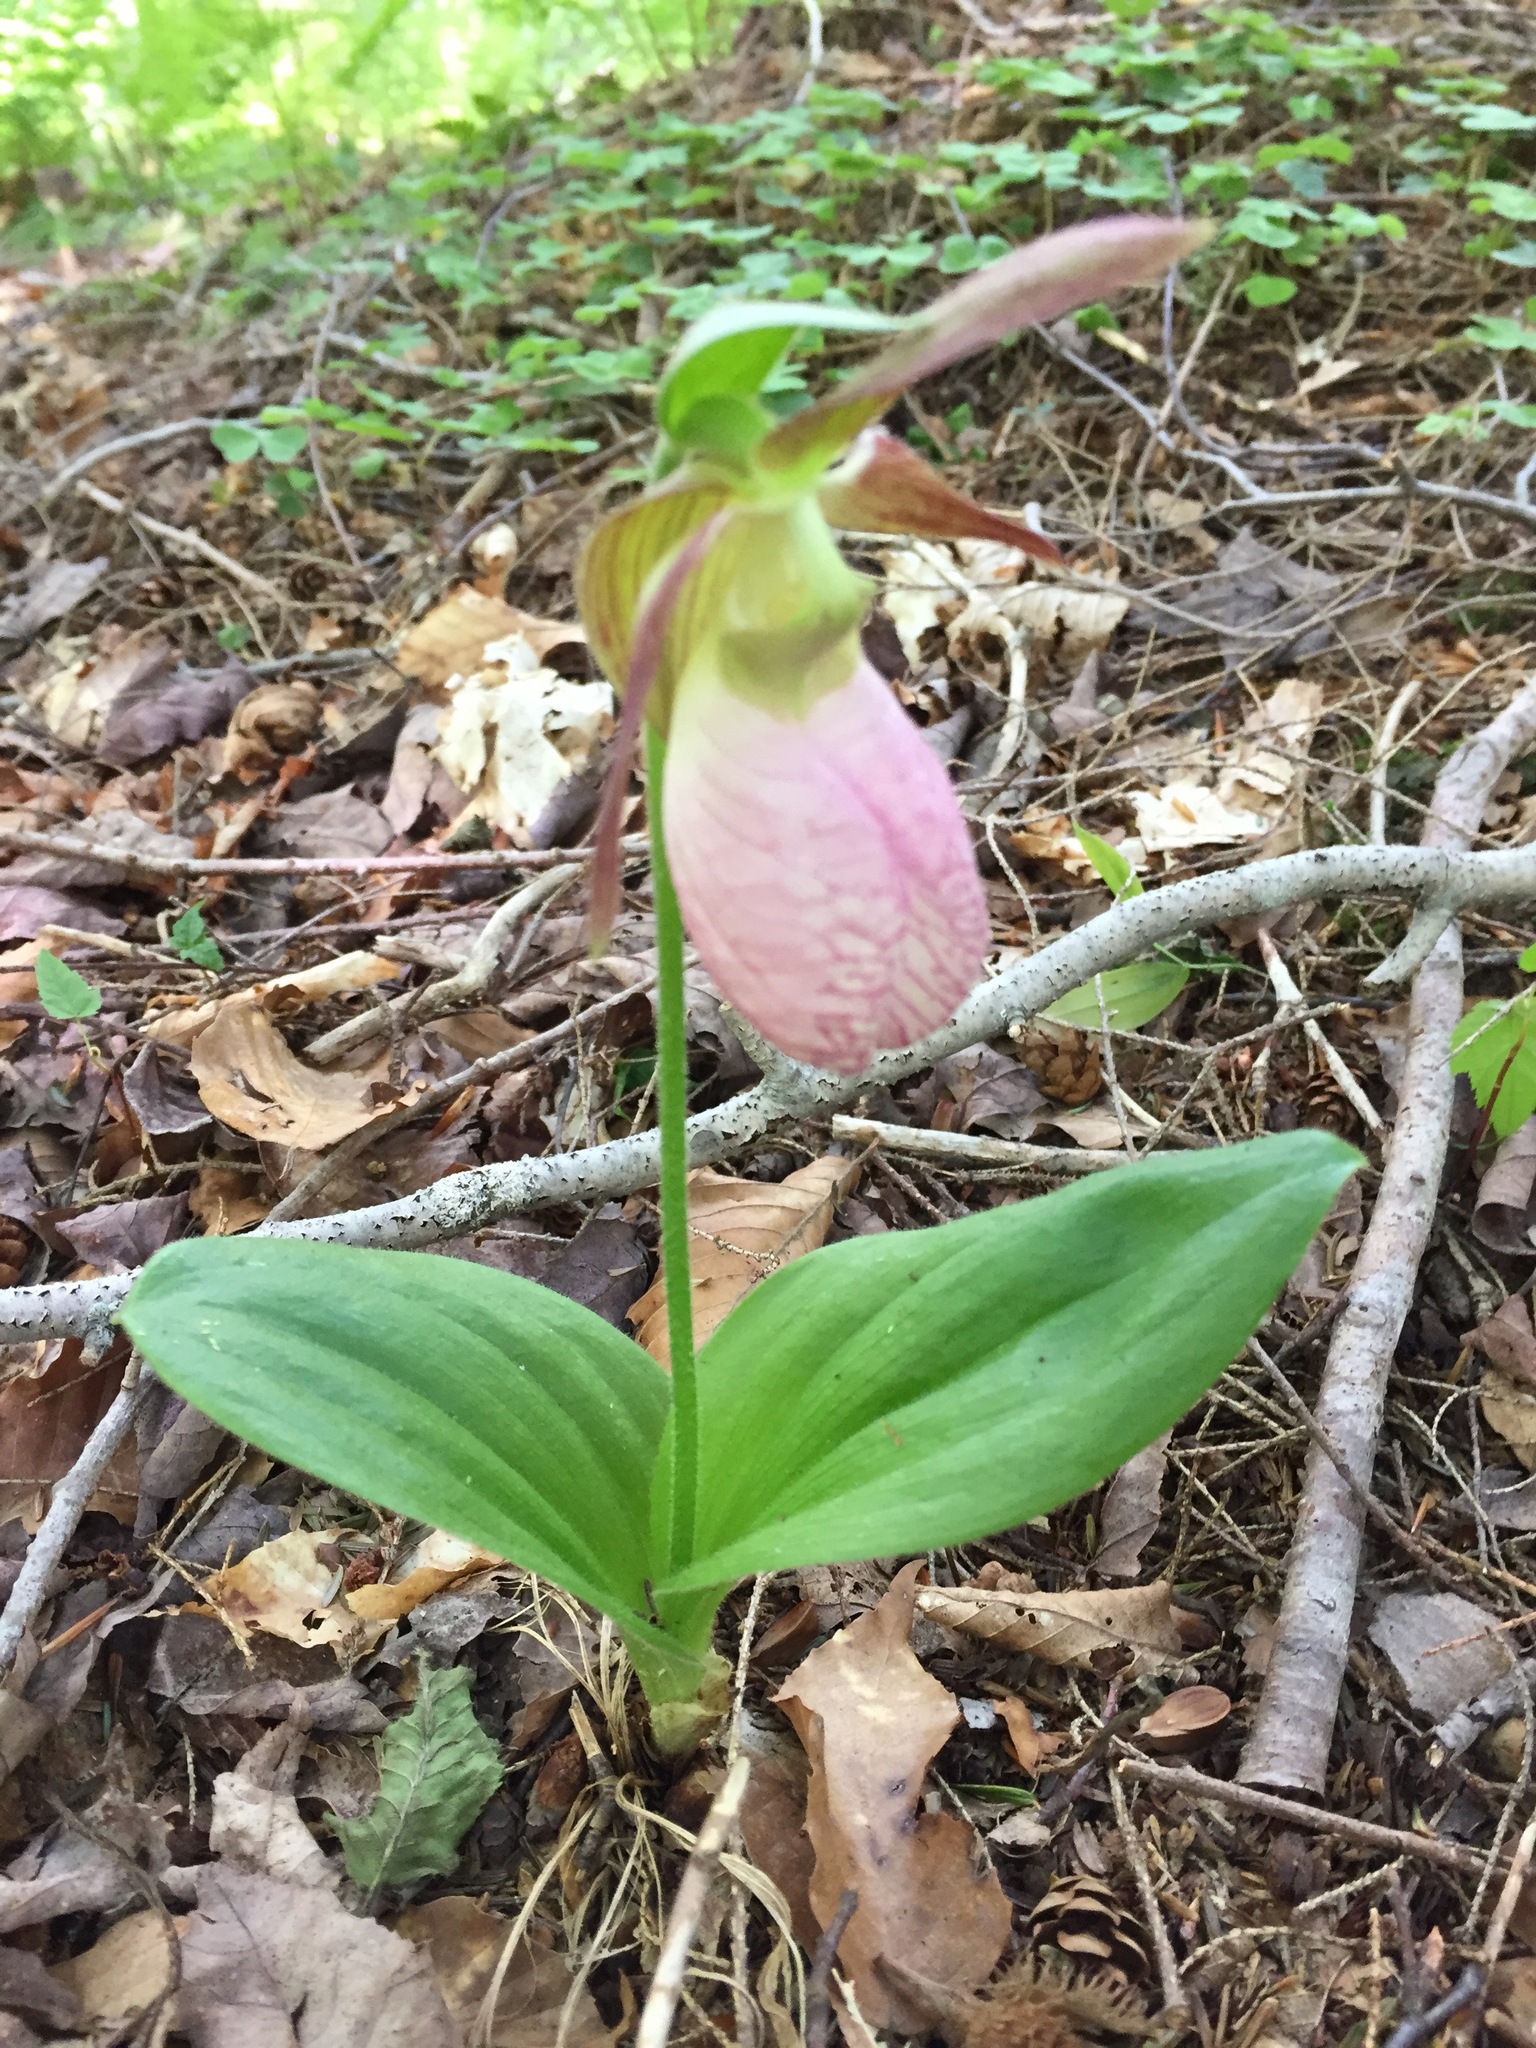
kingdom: Plantae
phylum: Tracheophyta
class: Liliopsida
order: Asparagales
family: Orchidaceae
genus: Cypripedium
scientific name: Cypripedium acaule
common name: Pink lady's-slipper
